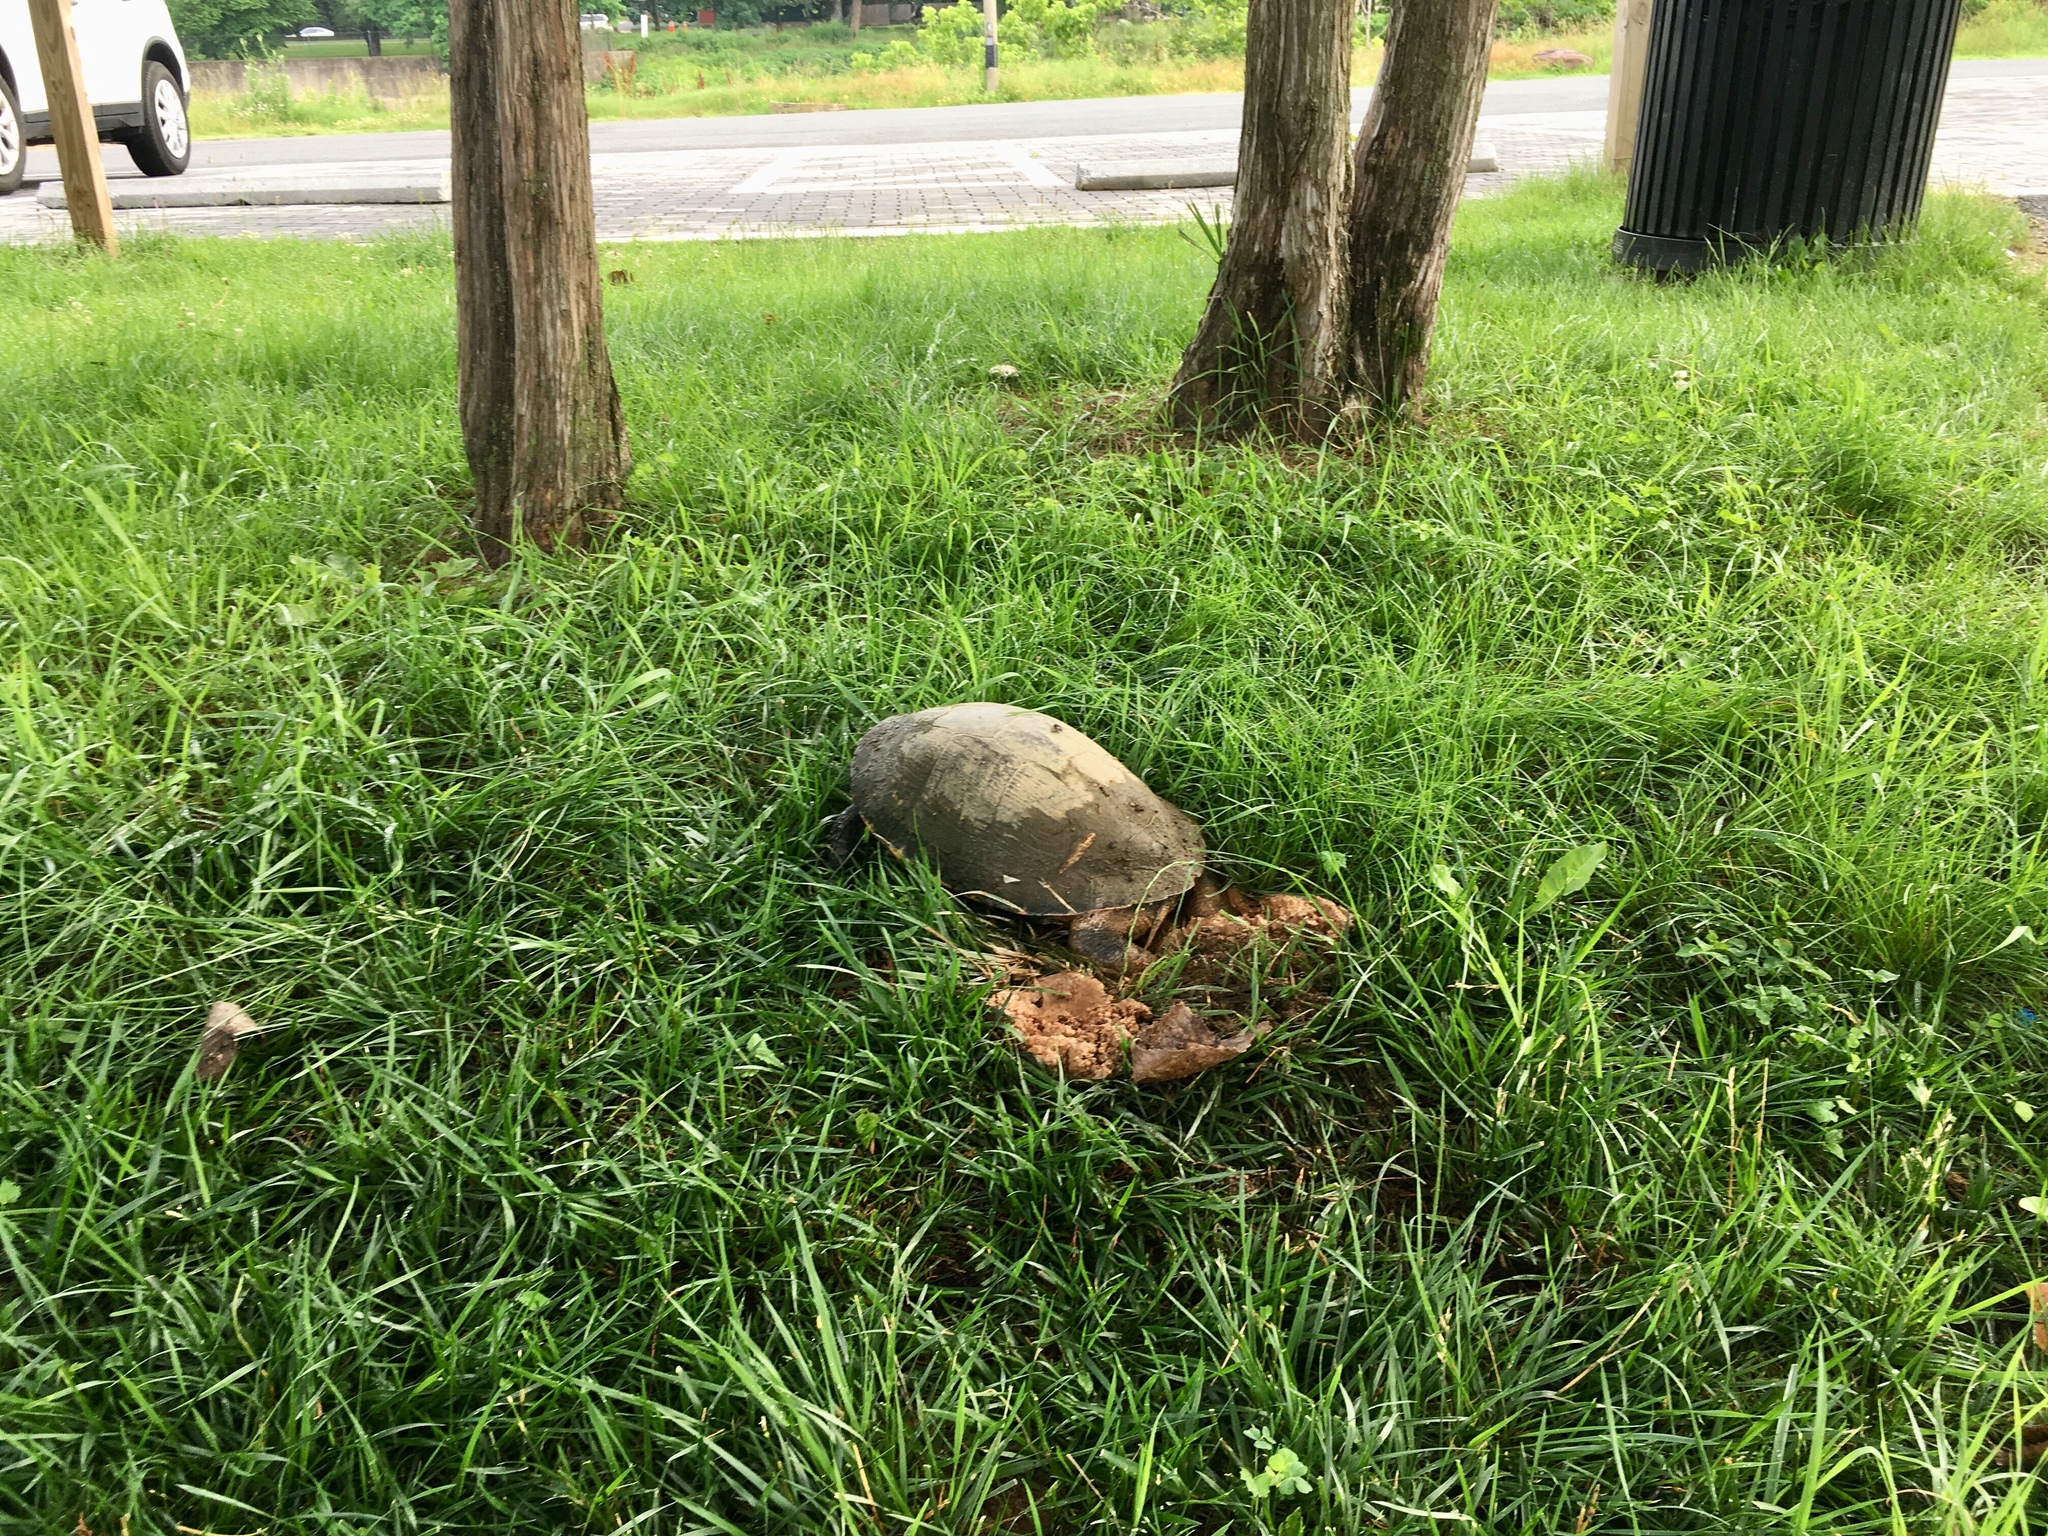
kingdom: Animalia
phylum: Chordata
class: Testudines
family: Emydidae
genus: Trachemys
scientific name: Trachemys scripta
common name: Slider
